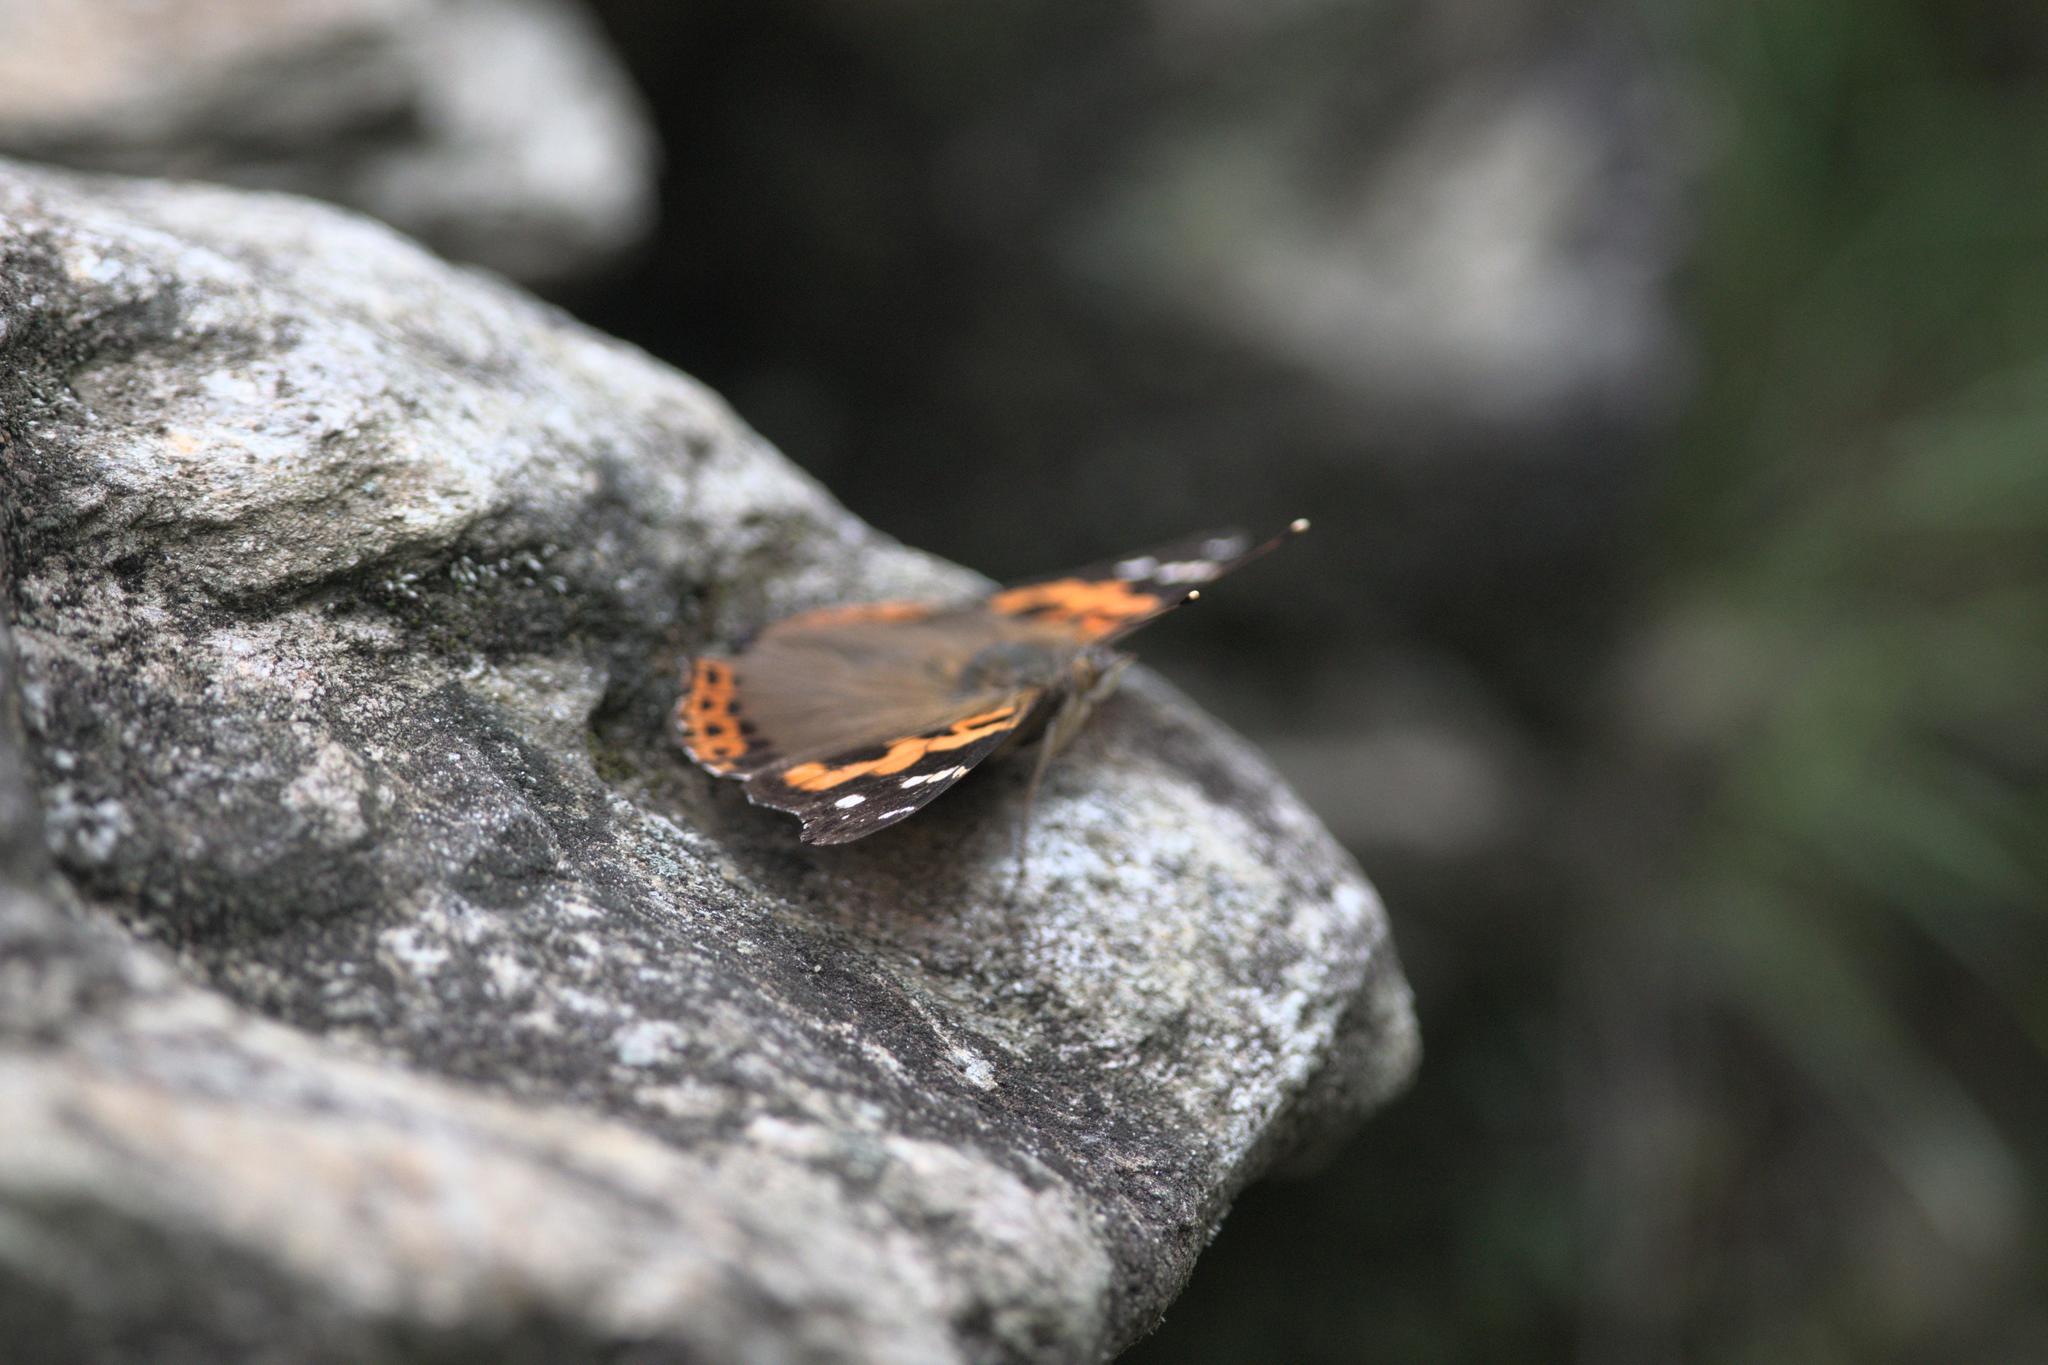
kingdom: Animalia
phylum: Arthropoda
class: Insecta
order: Lepidoptera
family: Nymphalidae
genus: Vanessa
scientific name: Vanessa indica
